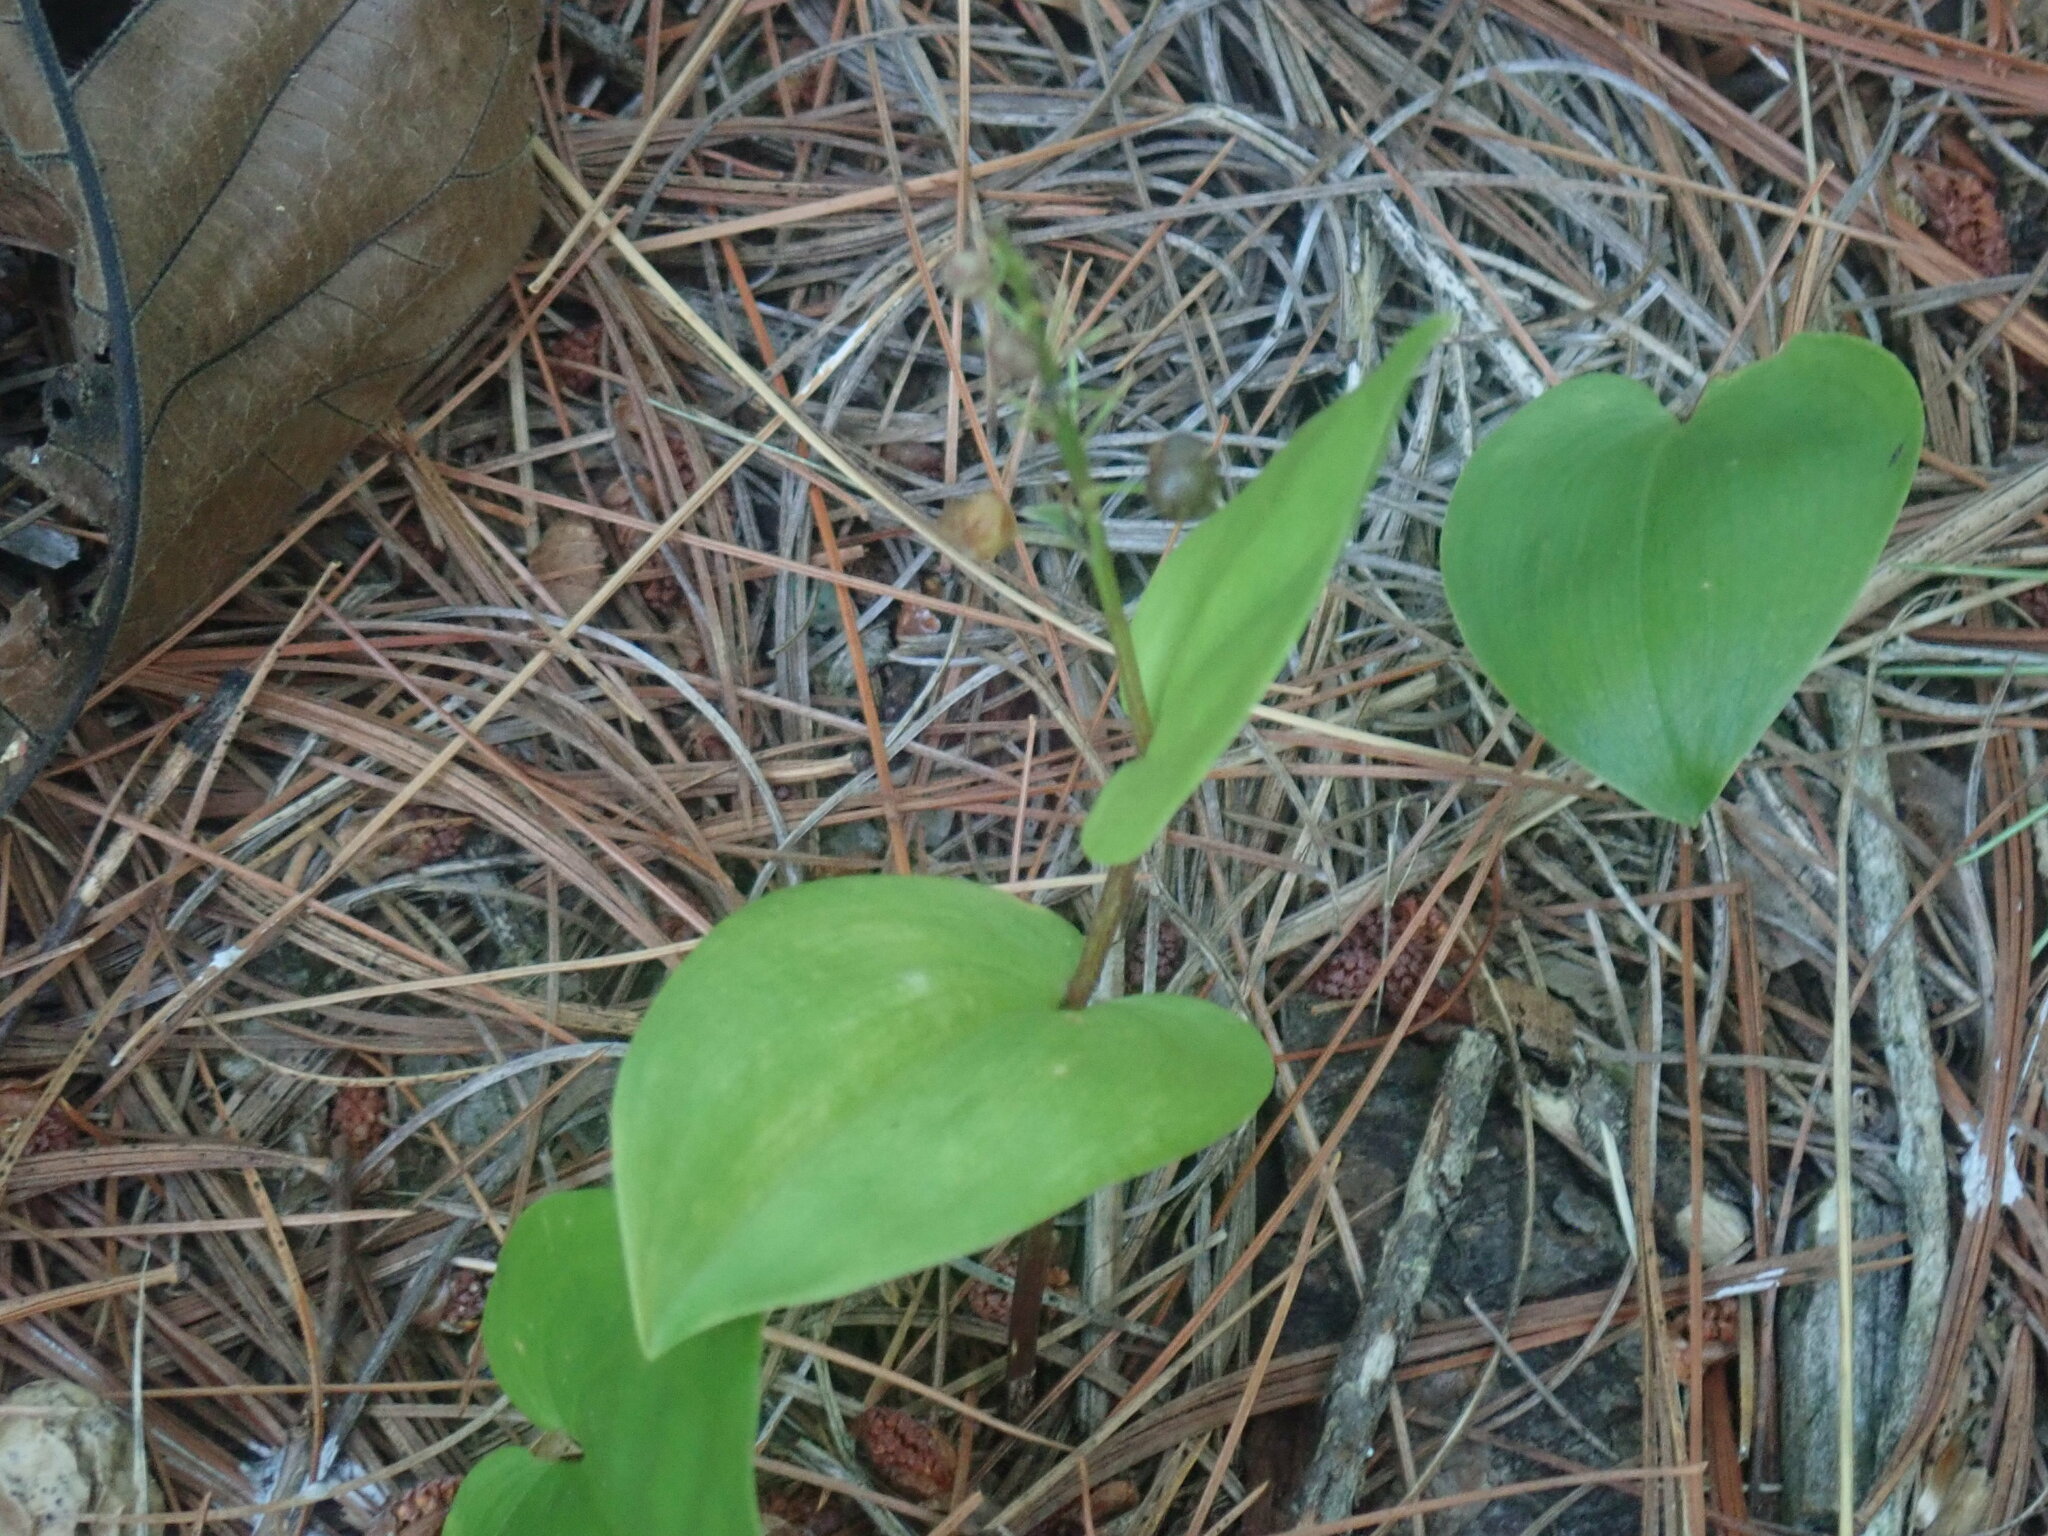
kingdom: Plantae
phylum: Tracheophyta
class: Liliopsida
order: Asparagales
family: Asparagaceae
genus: Maianthemum
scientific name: Maianthemum canadense
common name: False lily-of-the-valley
